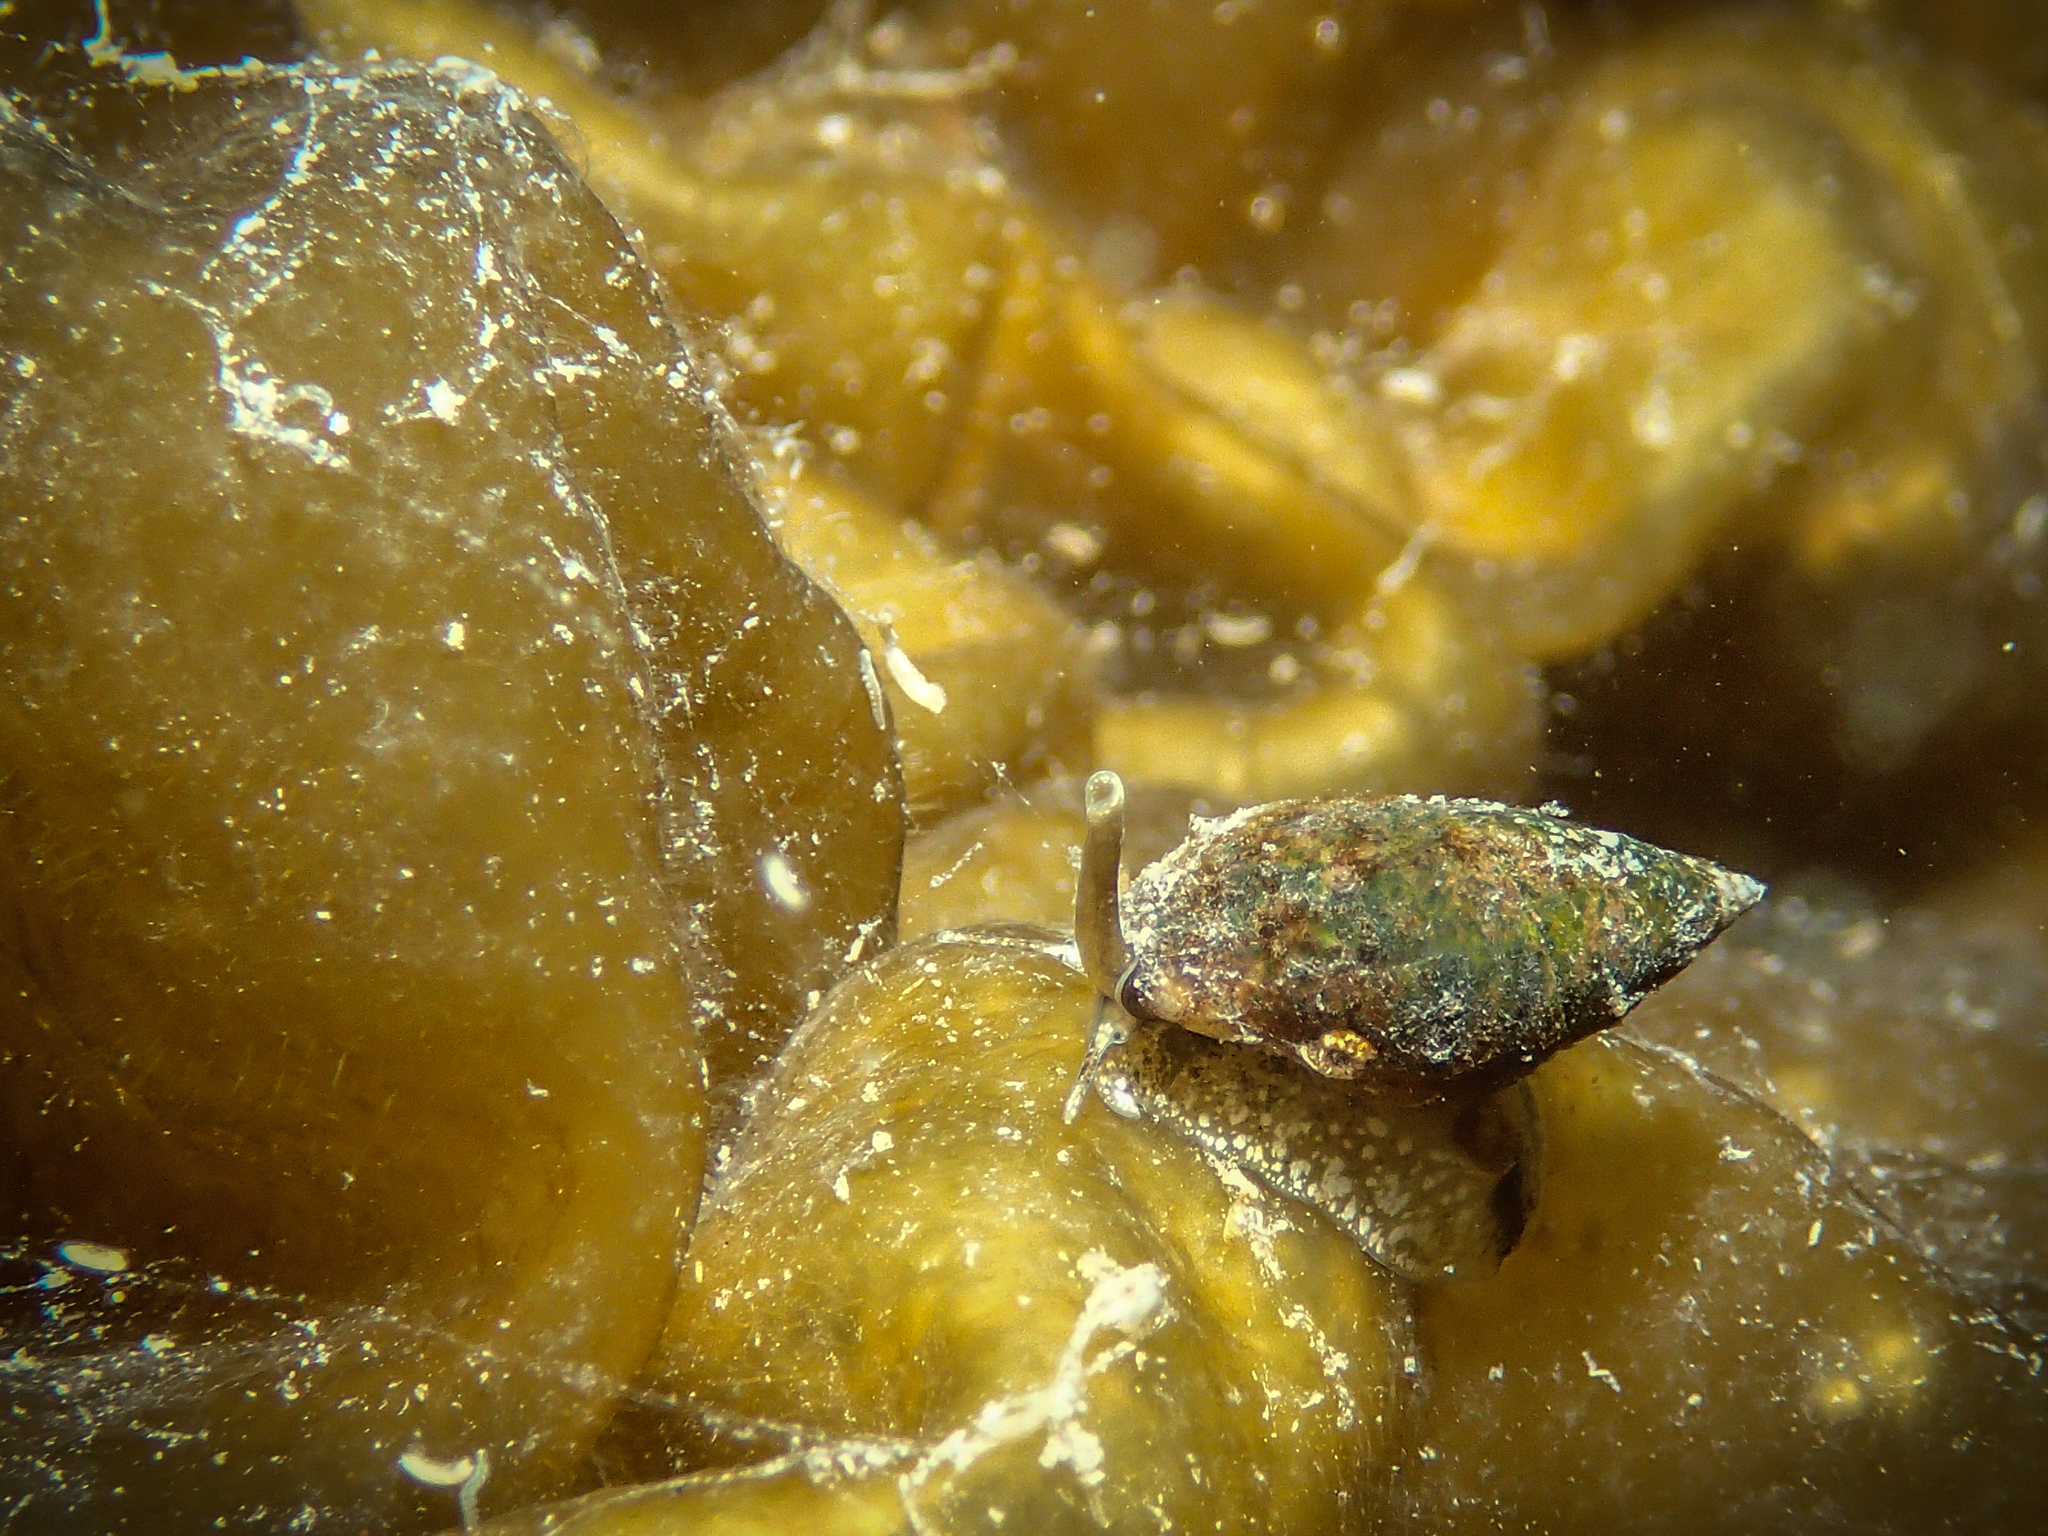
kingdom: Animalia
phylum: Mollusca
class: Gastropoda
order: Neogastropoda
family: Nassariidae
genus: Tritia
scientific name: Tritia corniculum
